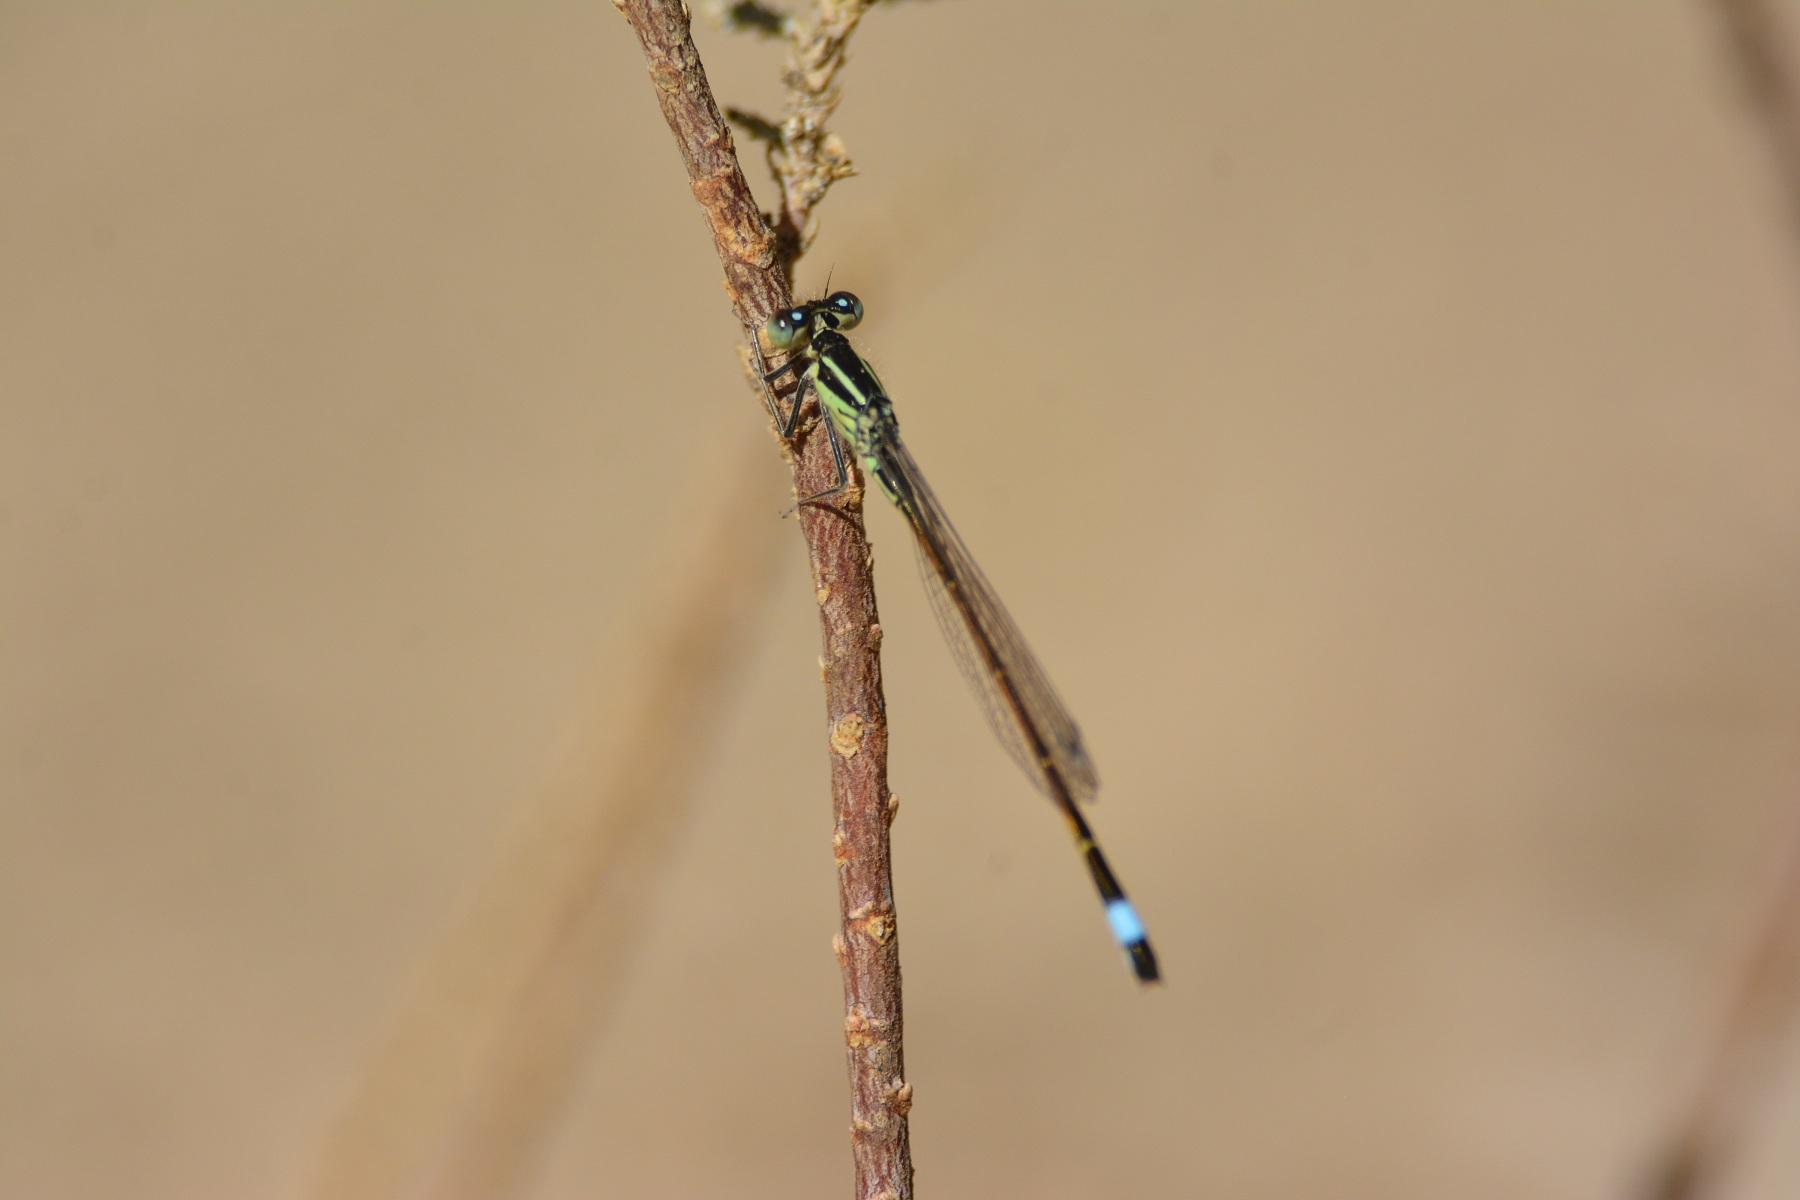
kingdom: Animalia
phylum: Arthropoda
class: Insecta
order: Odonata
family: Coenagrionidae
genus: Ischnura
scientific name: Ischnura saharensis
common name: Sahara bluetail
